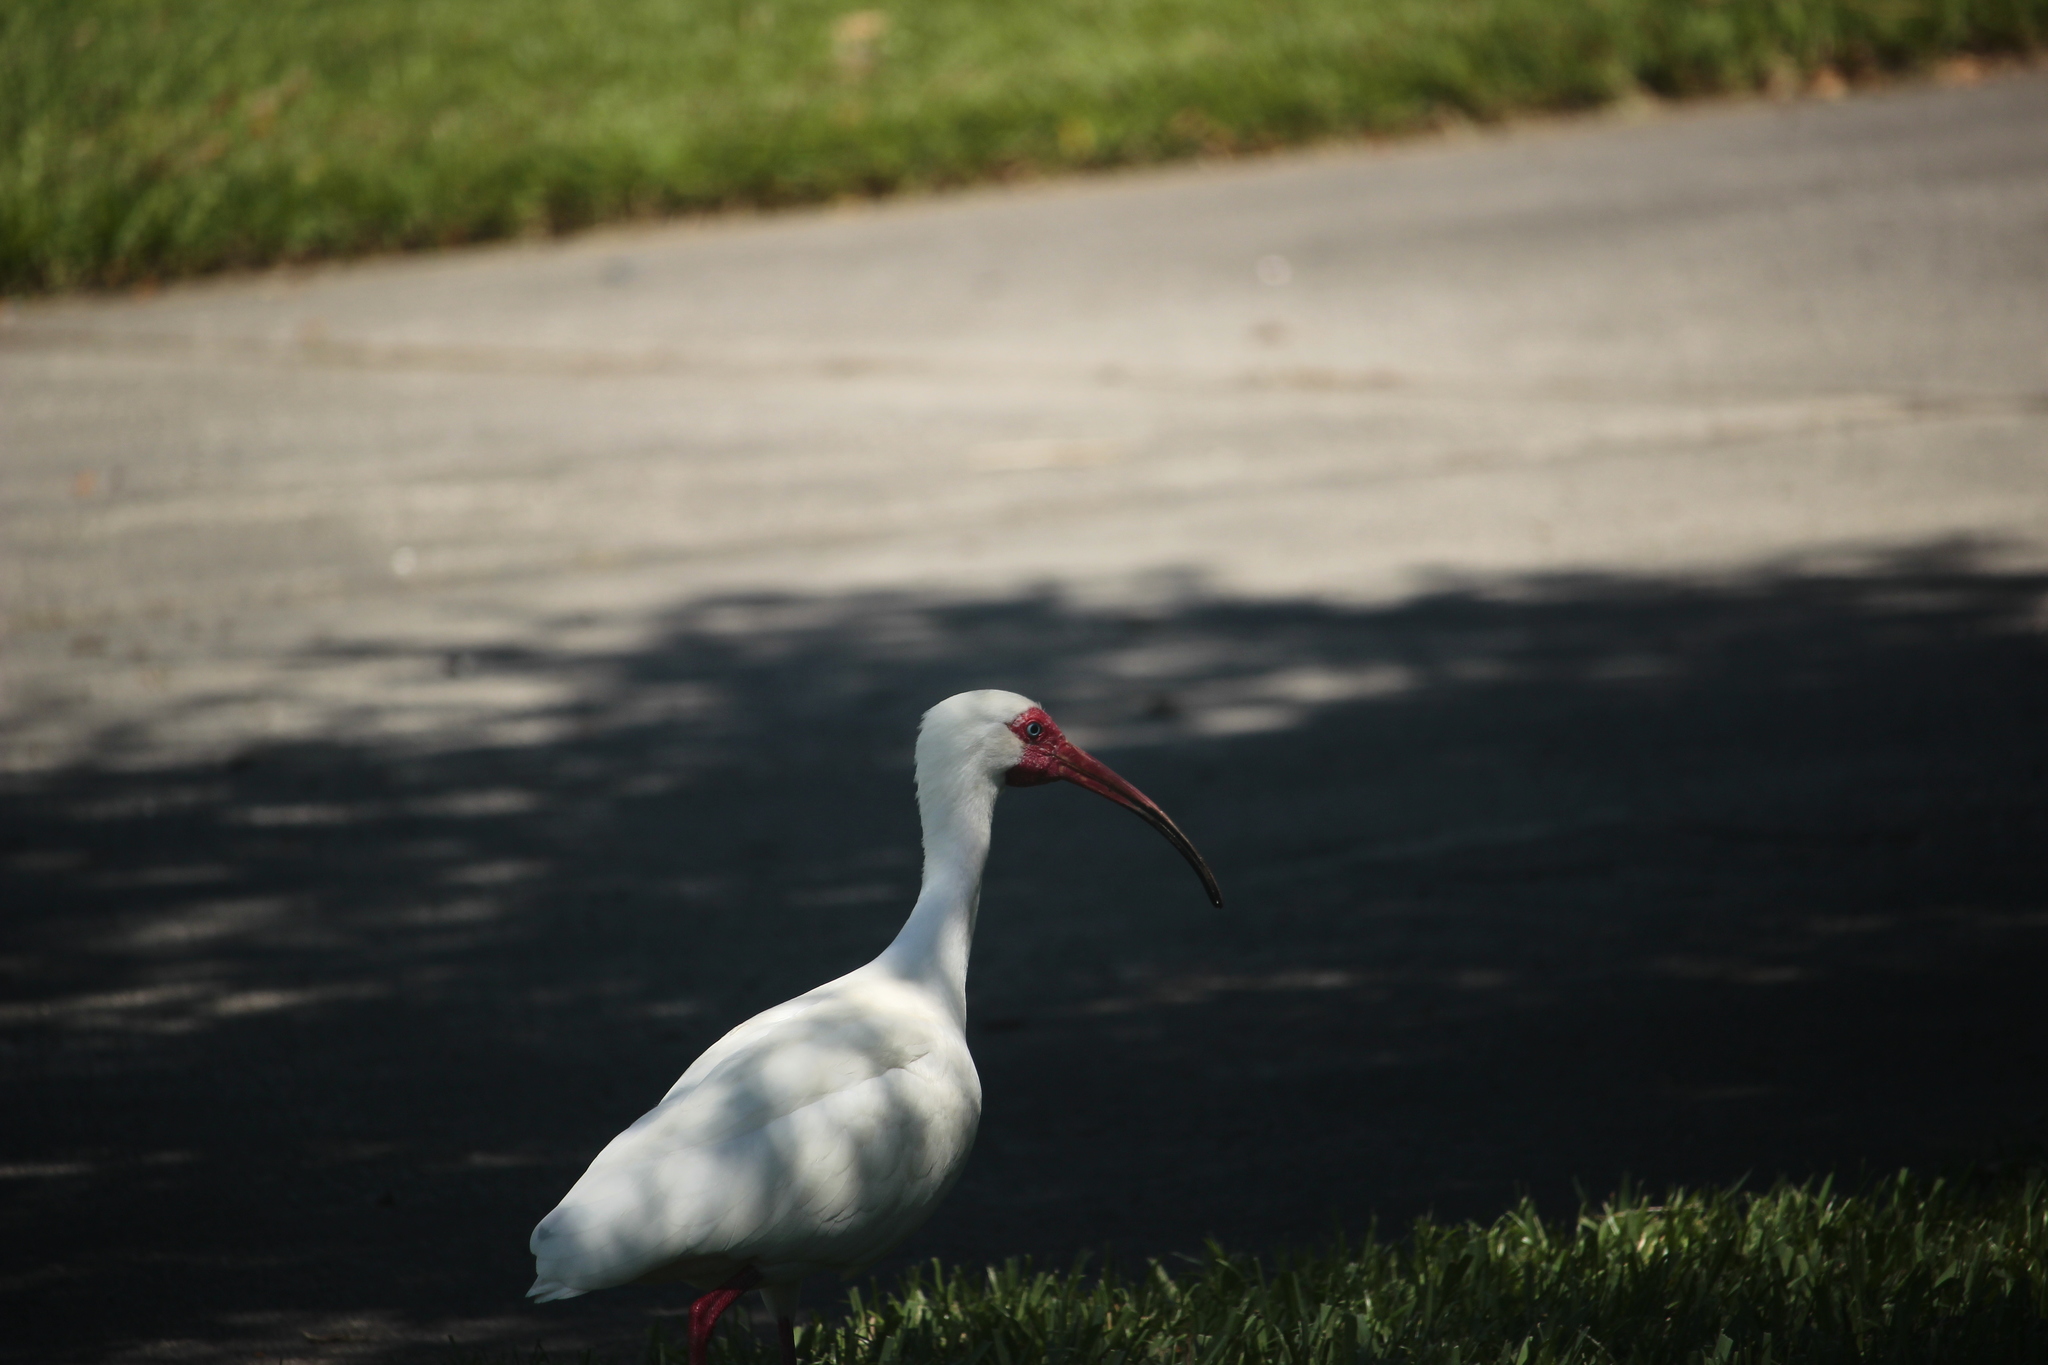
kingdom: Animalia
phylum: Chordata
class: Aves
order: Pelecaniformes
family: Threskiornithidae
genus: Eudocimus
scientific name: Eudocimus albus
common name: White ibis
